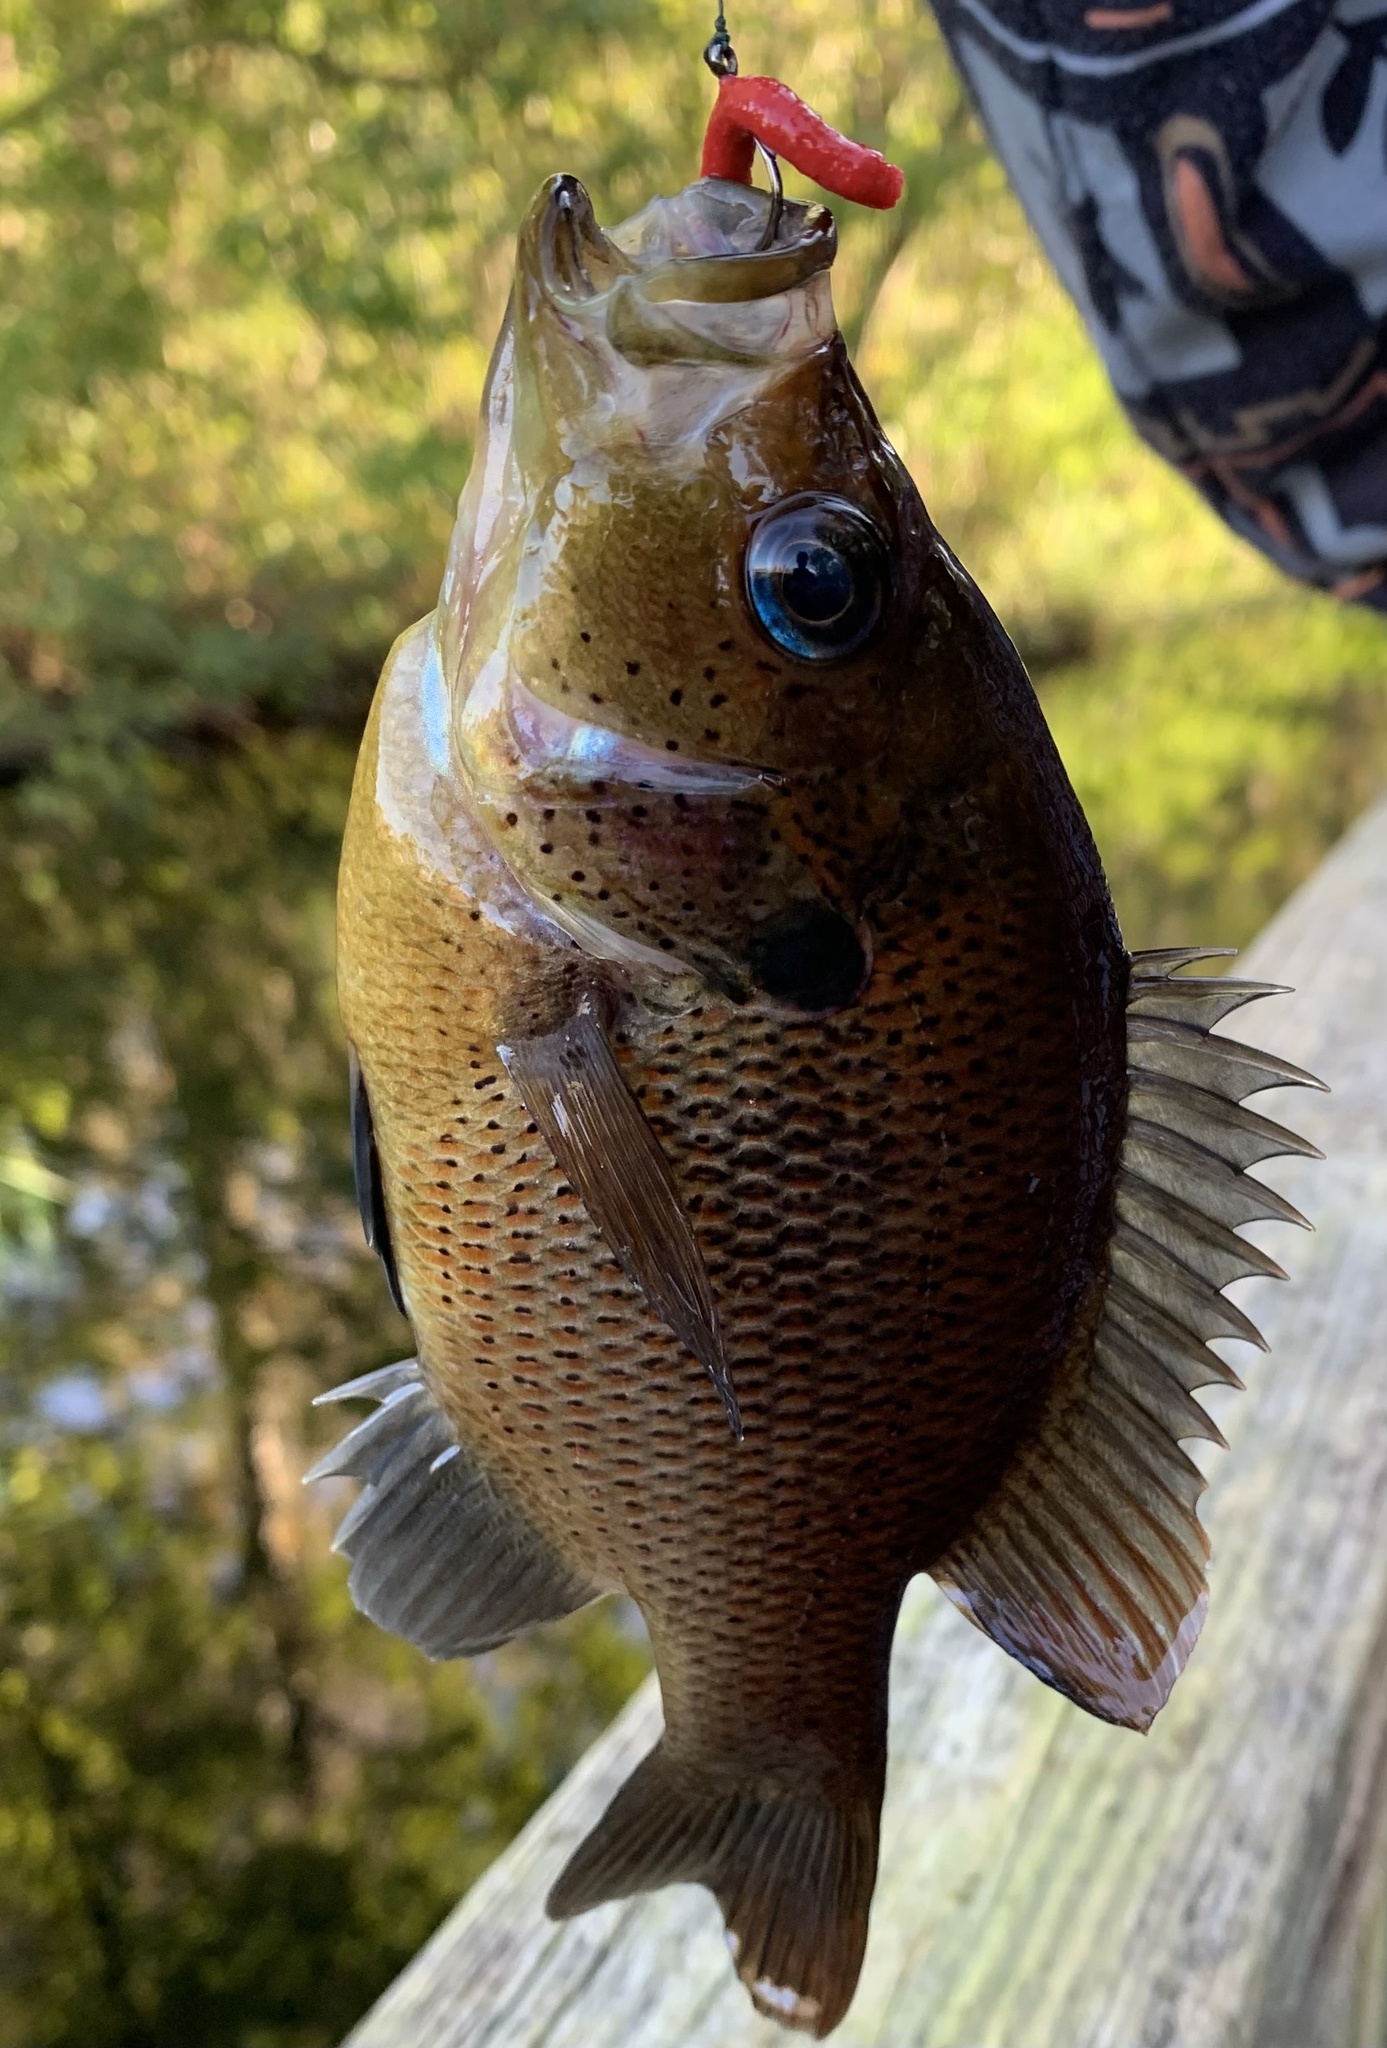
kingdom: Animalia
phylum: Chordata
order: Perciformes
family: Centrarchidae
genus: Lepomis
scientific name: Lepomis punctatus
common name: Spotted sunfish
